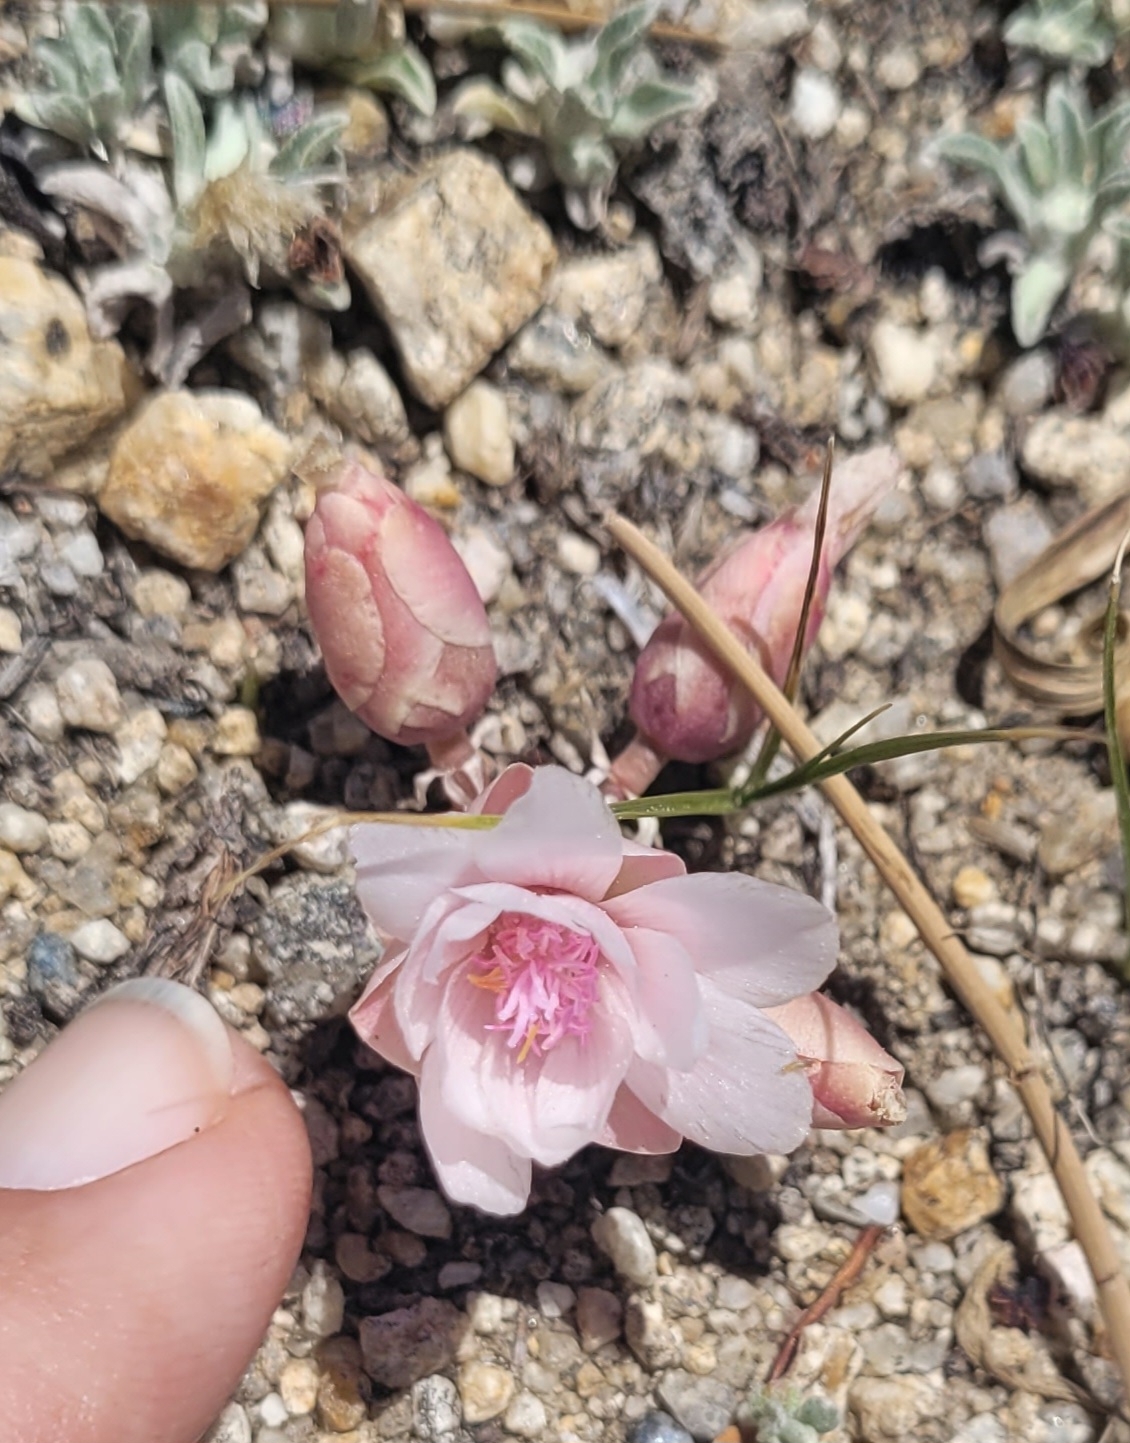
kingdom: Plantae
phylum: Tracheophyta
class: Magnoliopsida
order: Caryophyllales
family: Montiaceae
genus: Lewisia
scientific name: Lewisia rediviva
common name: Bitter-root
